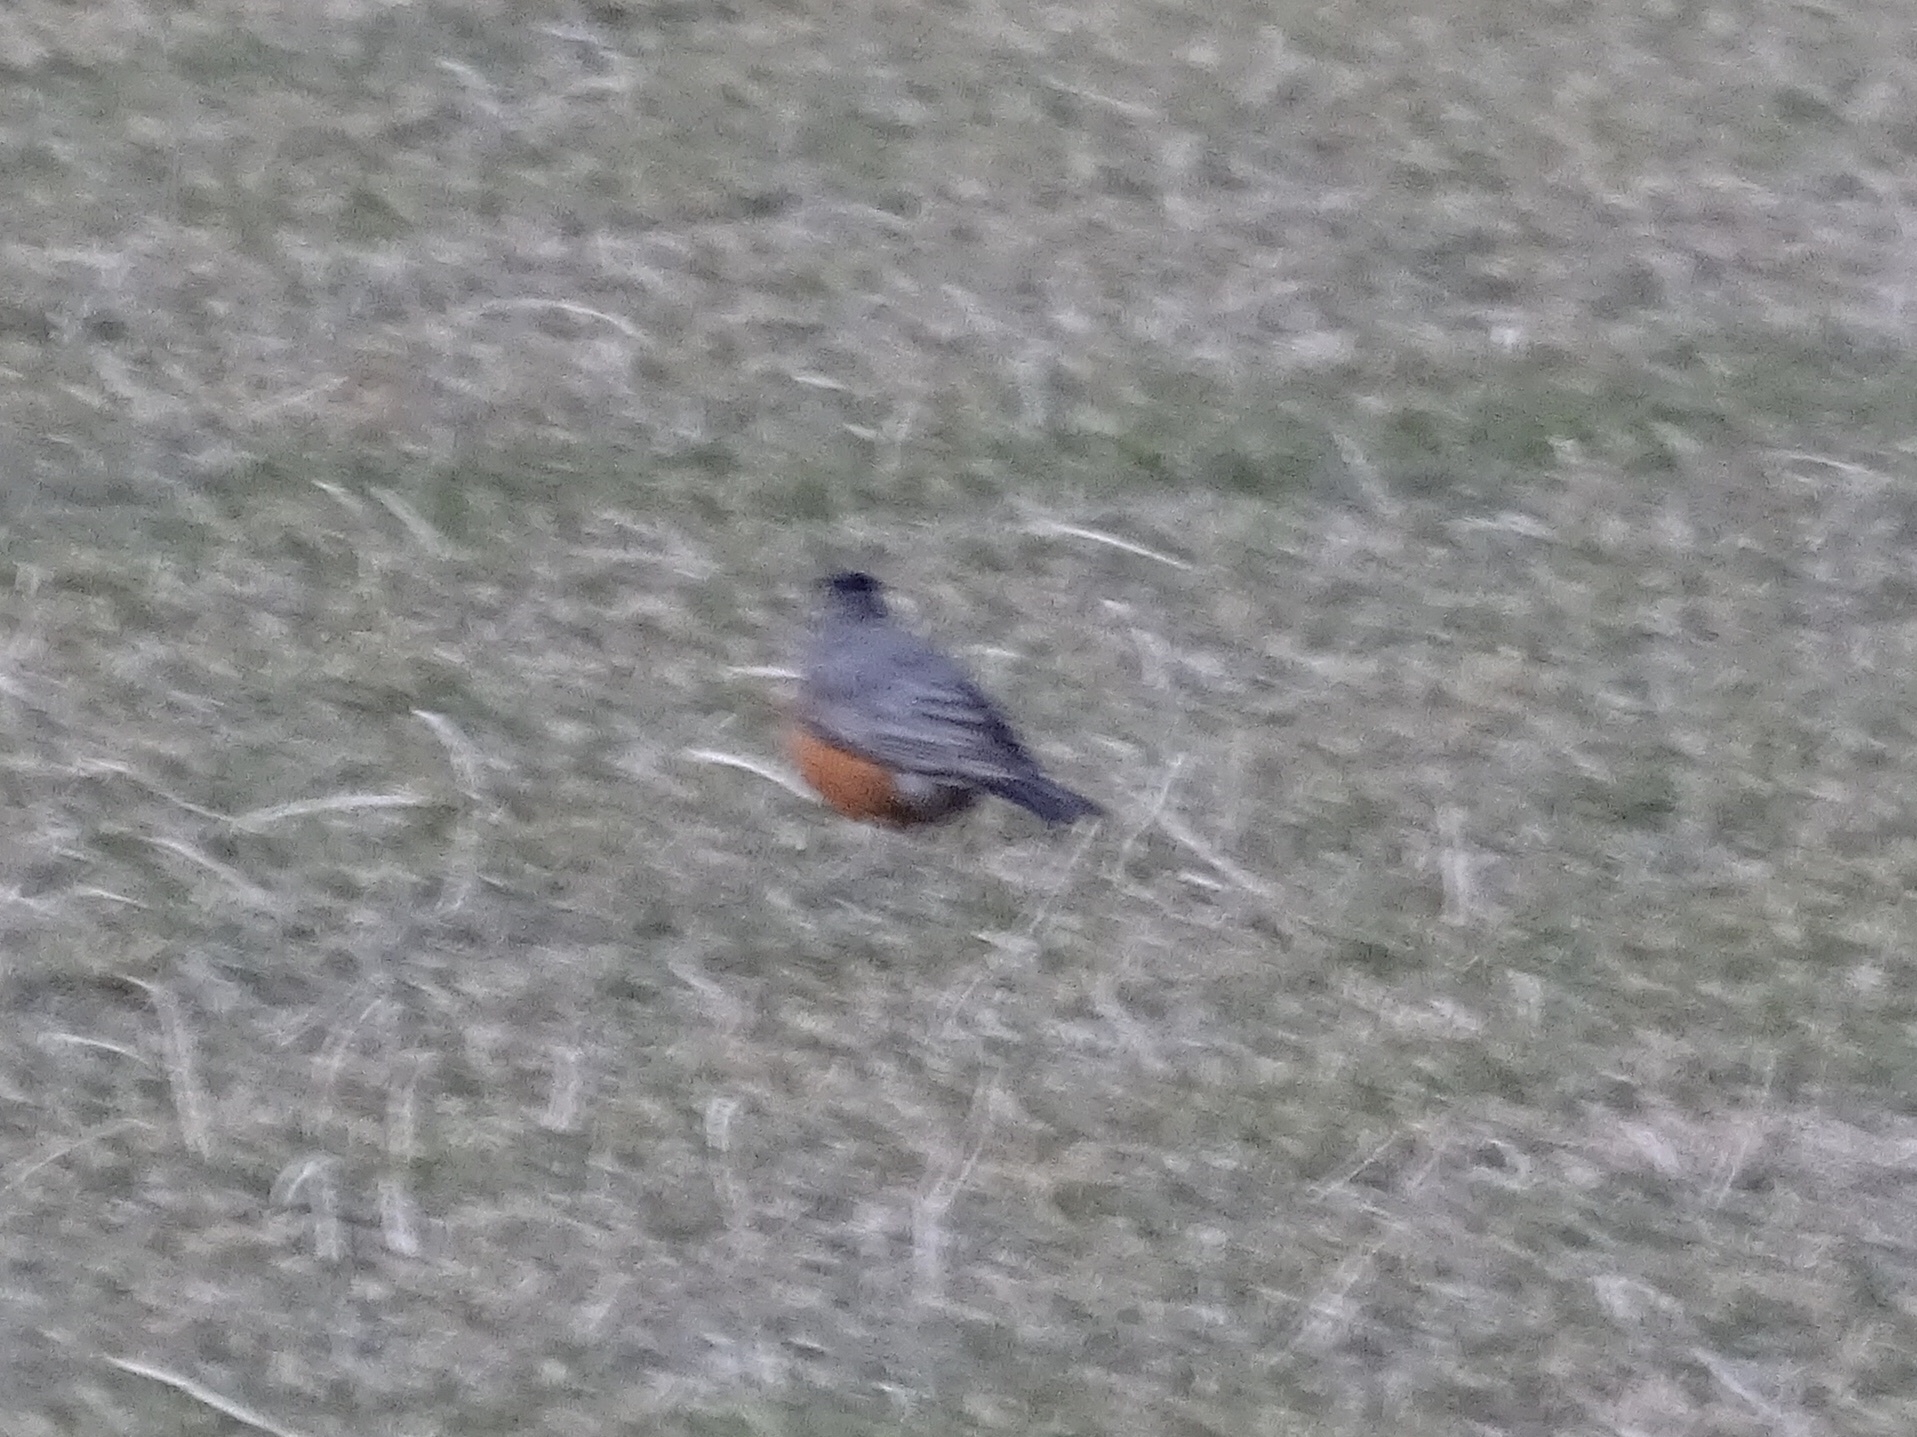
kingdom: Animalia
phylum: Chordata
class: Aves
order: Passeriformes
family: Turdidae
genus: Turdus
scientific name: Turdus migratorius
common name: American robin
